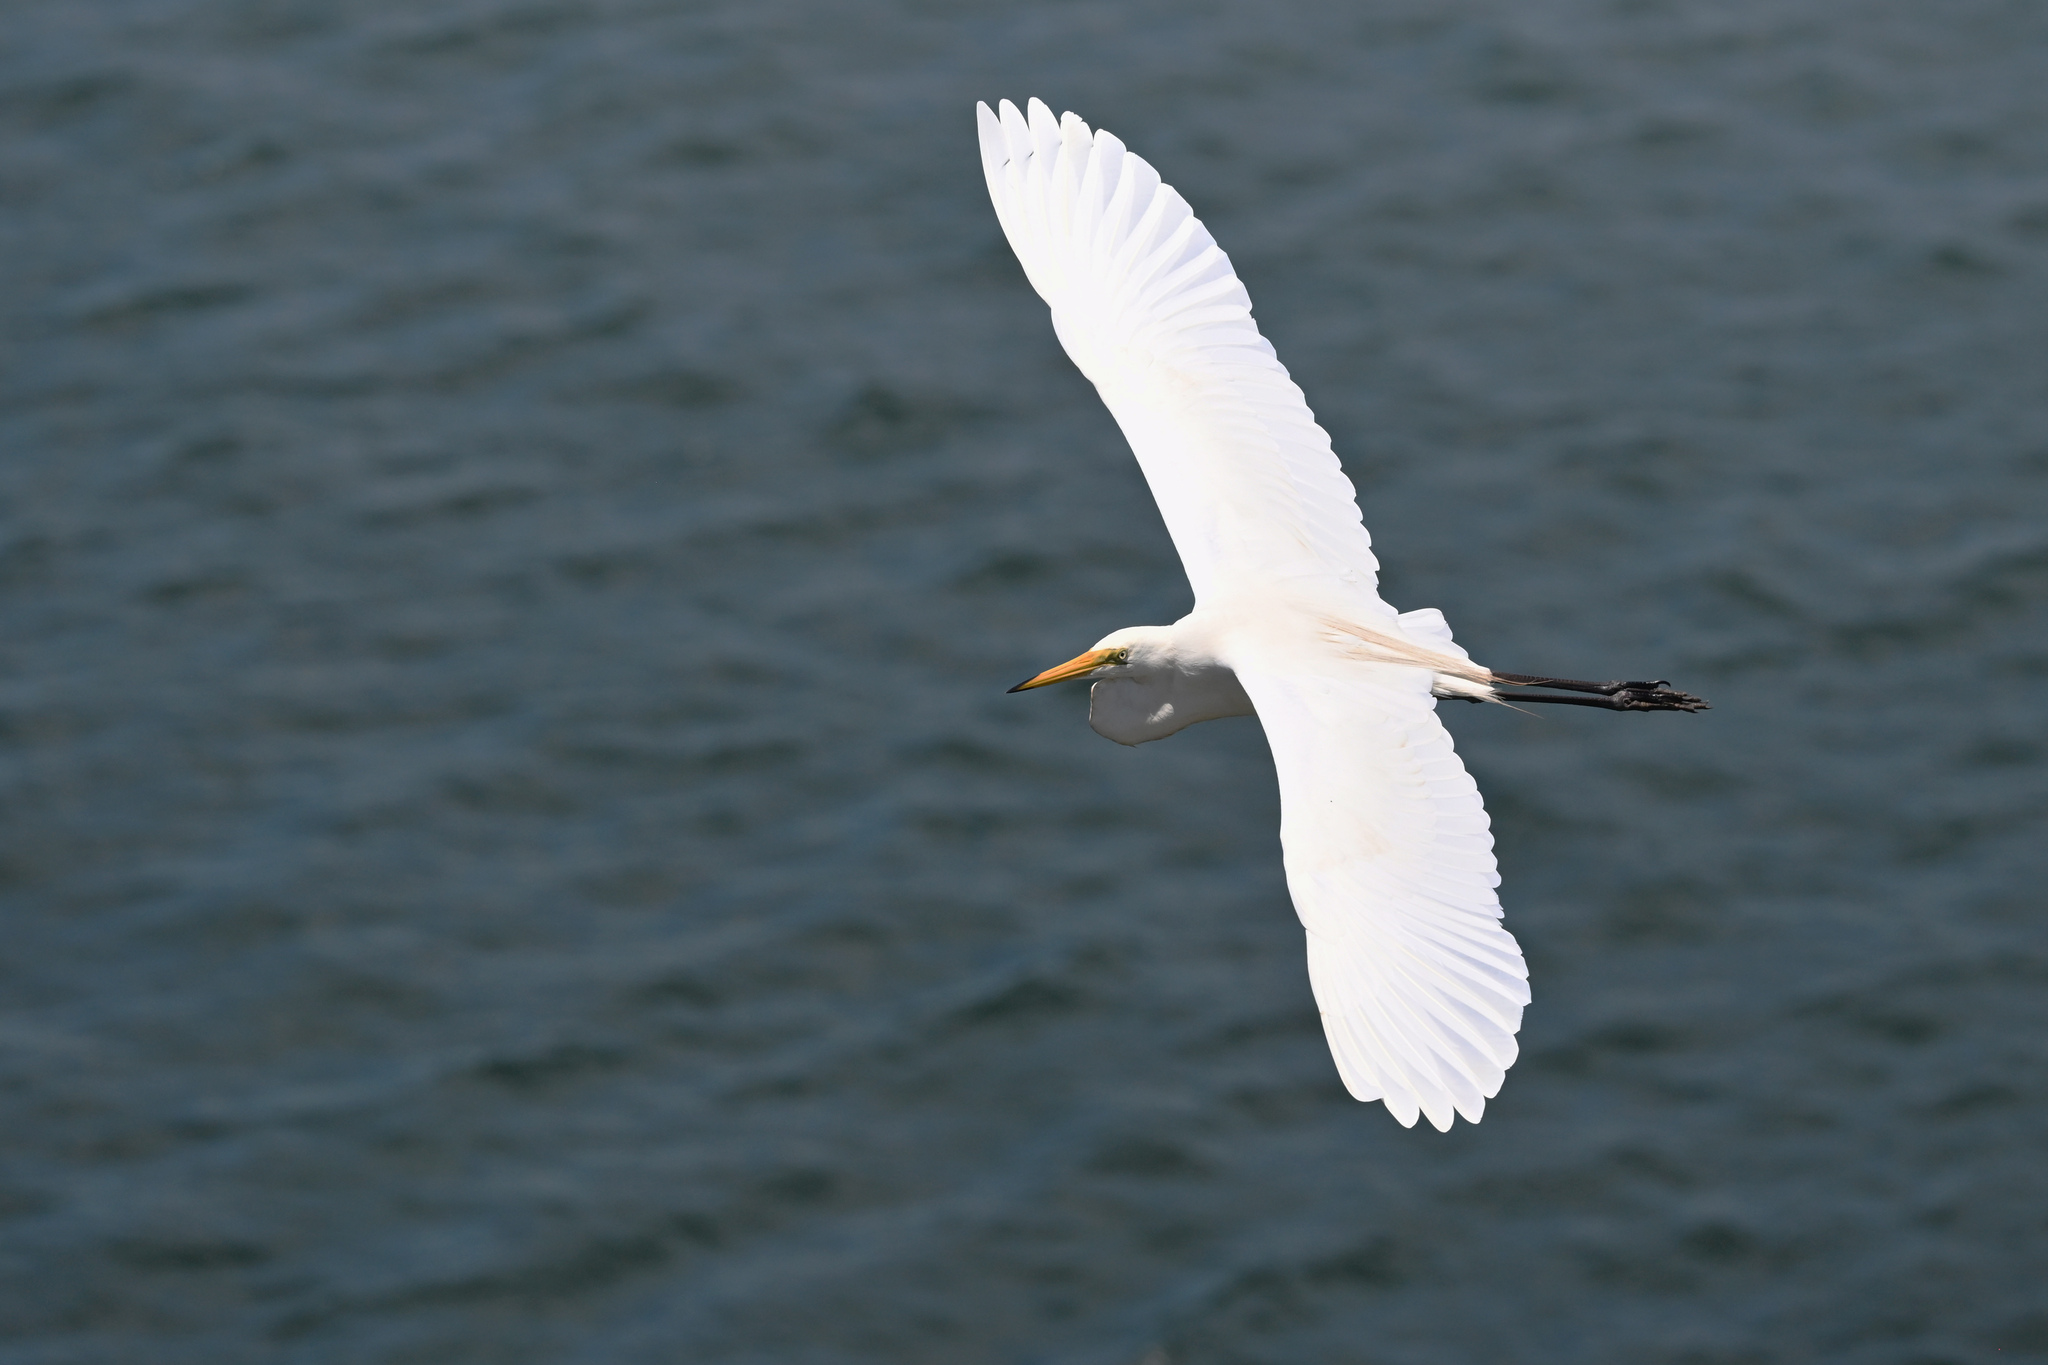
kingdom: Animalia
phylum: Chordata
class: Aves
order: Pelecaniformes
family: Ardeidae
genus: Ardea
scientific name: Ardea alba
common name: Great egret
